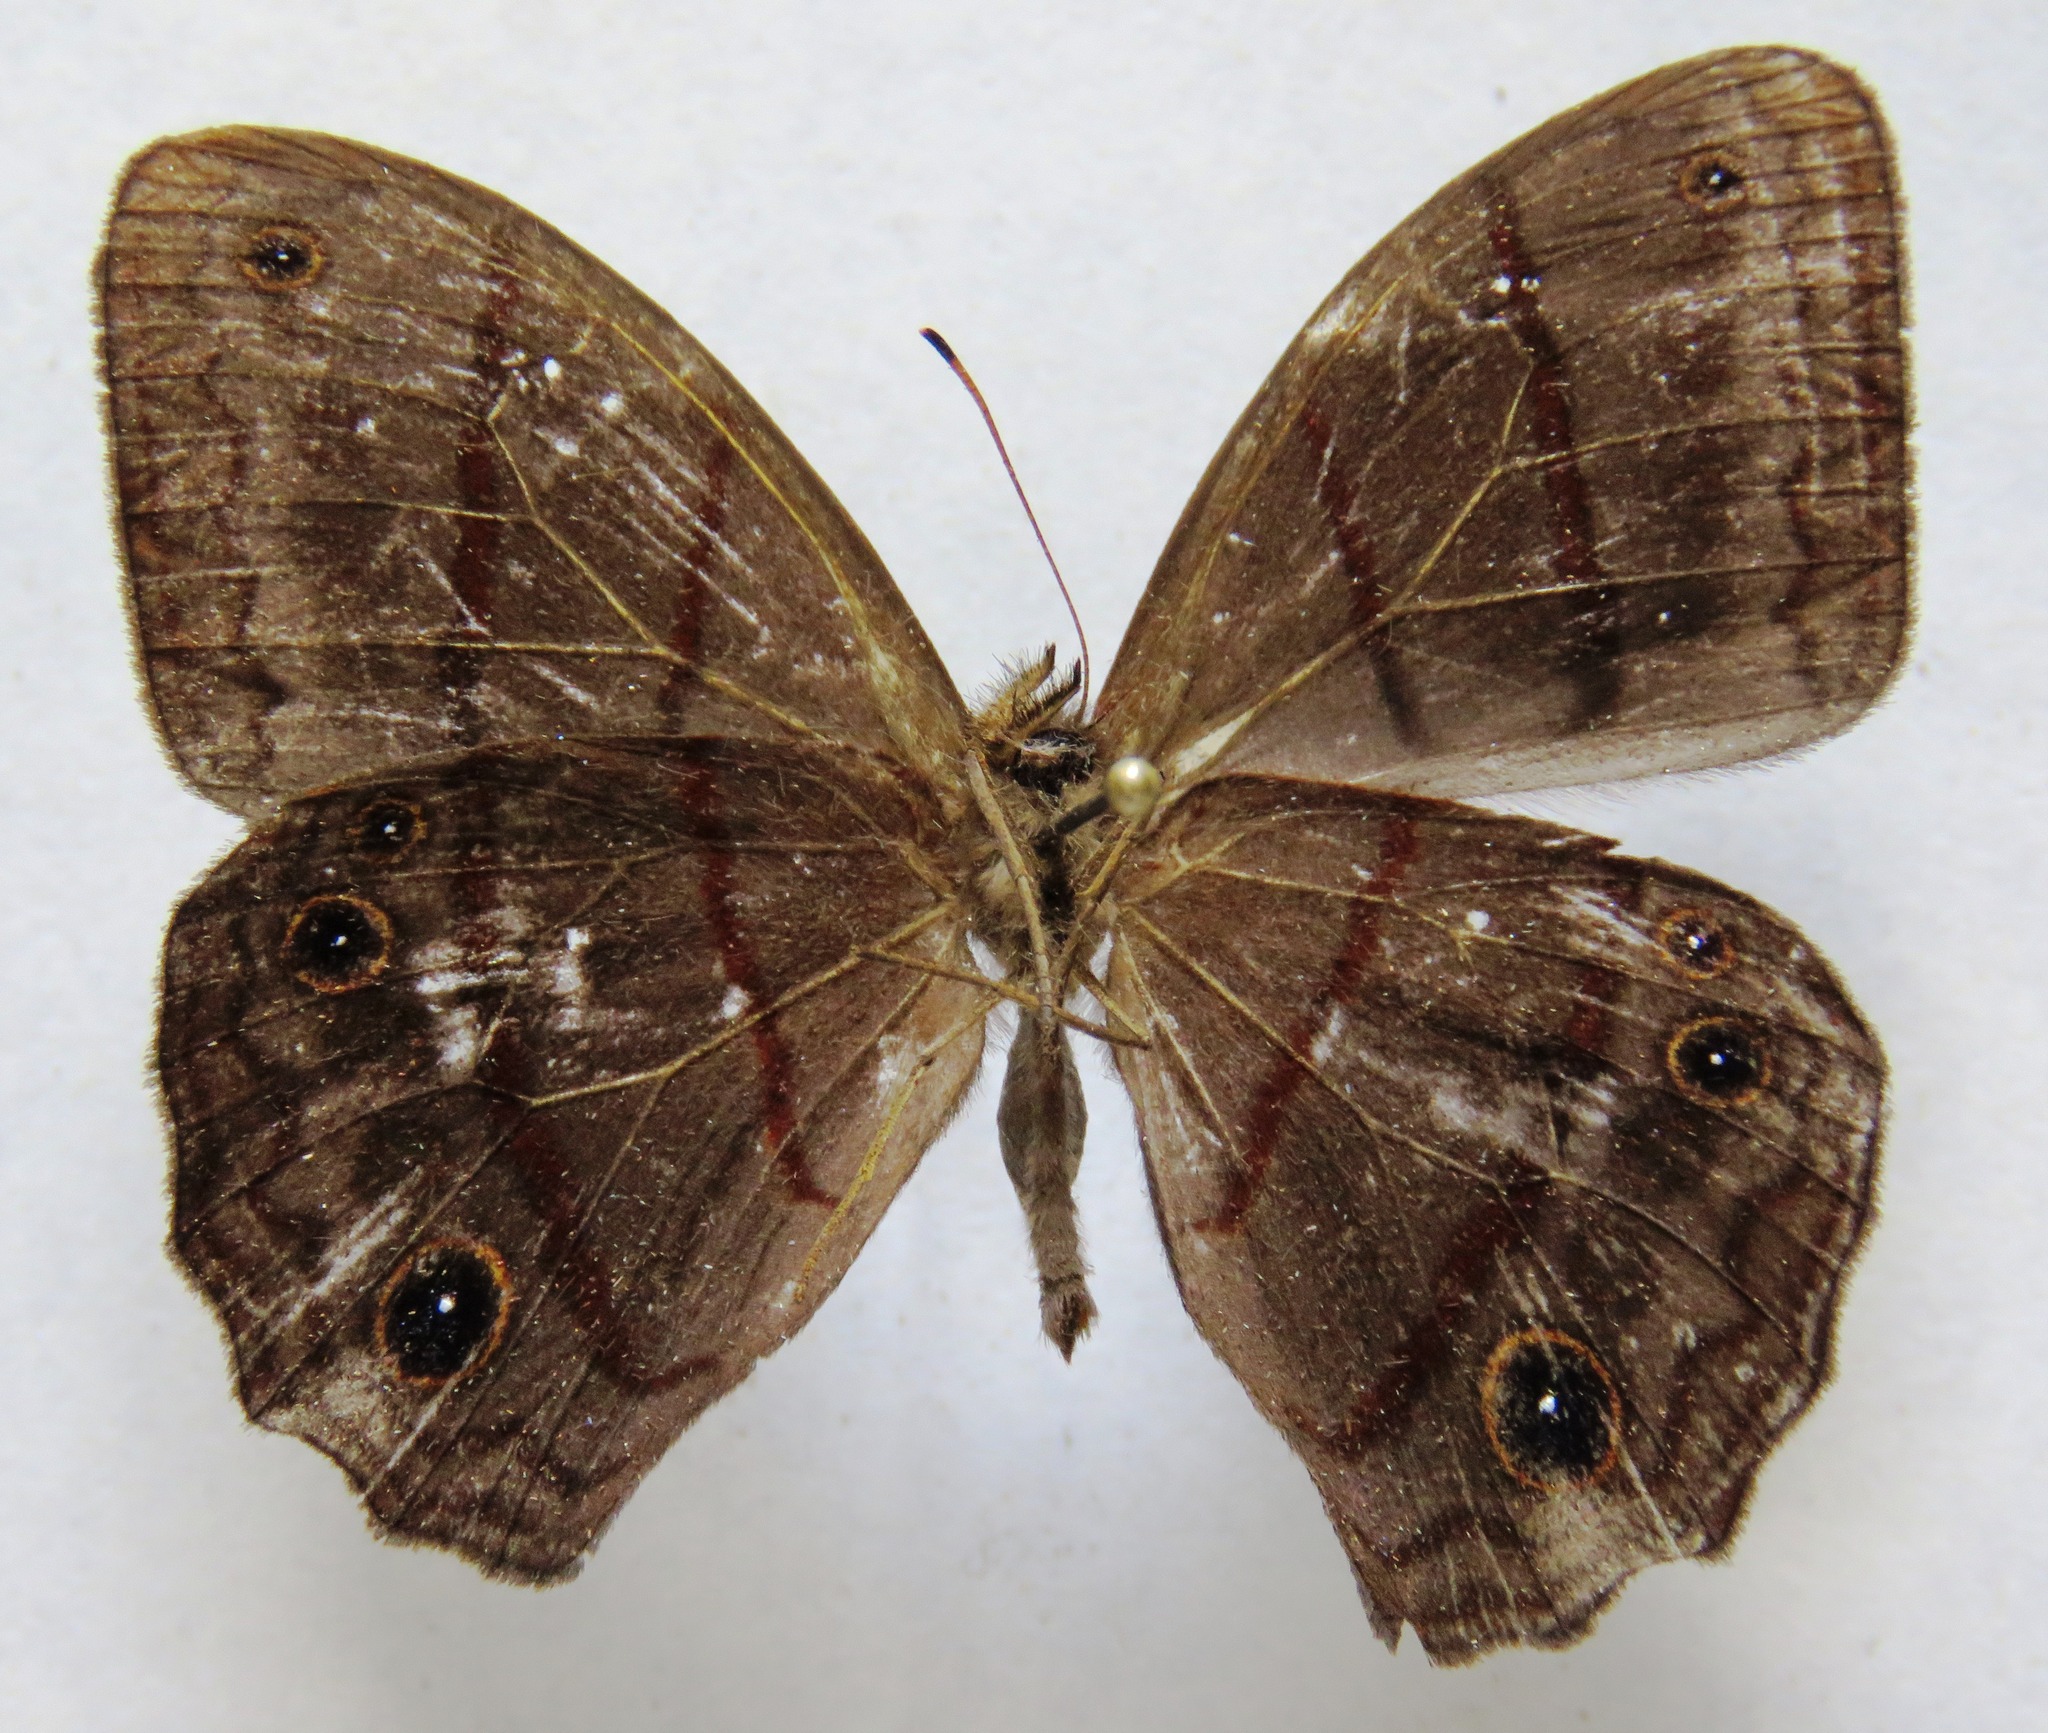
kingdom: Animalia
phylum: Arthropoda
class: Insecta
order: Lepidoptera
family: Nymphalidae
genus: Satyrotaygetis
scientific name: Satyrotaygetis satyrina
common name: Wide-bordered satyr
